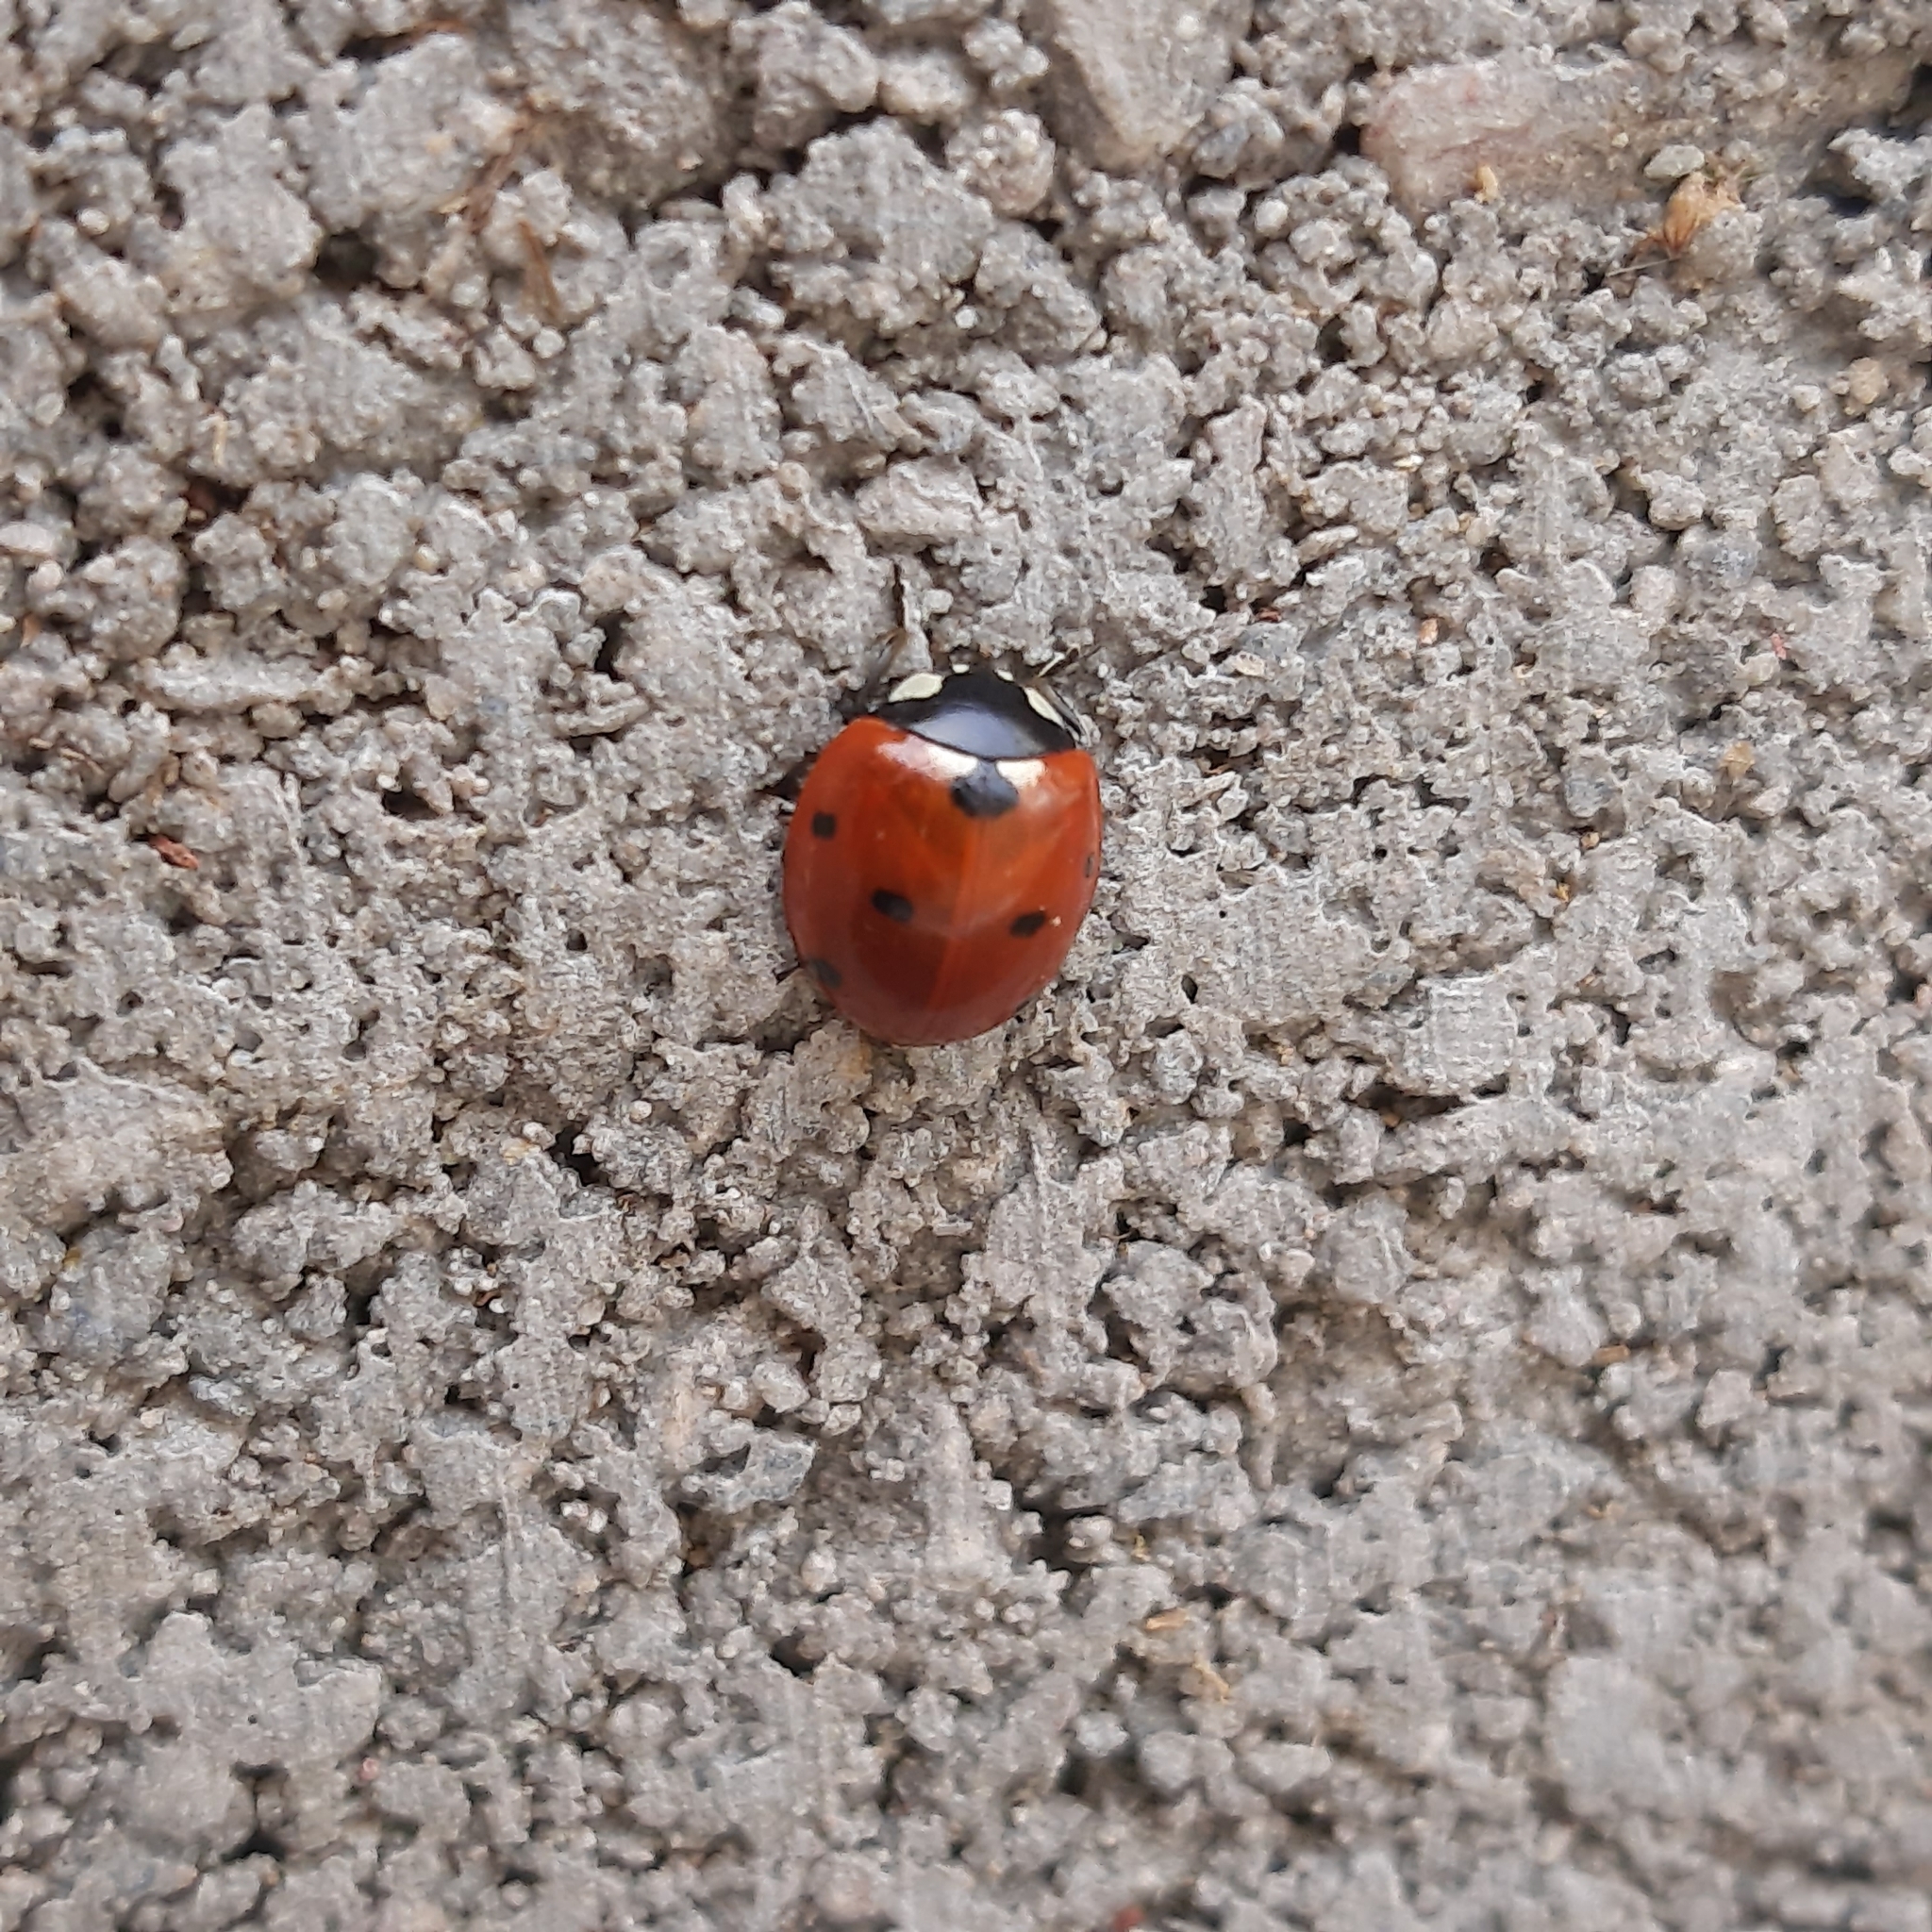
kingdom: Animalia
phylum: Arthropoda
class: Insecta
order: Coleoptera
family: Coccinellidae
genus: Coccinella
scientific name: Coccinella septempunctata
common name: Sevenspotted lady beetle
